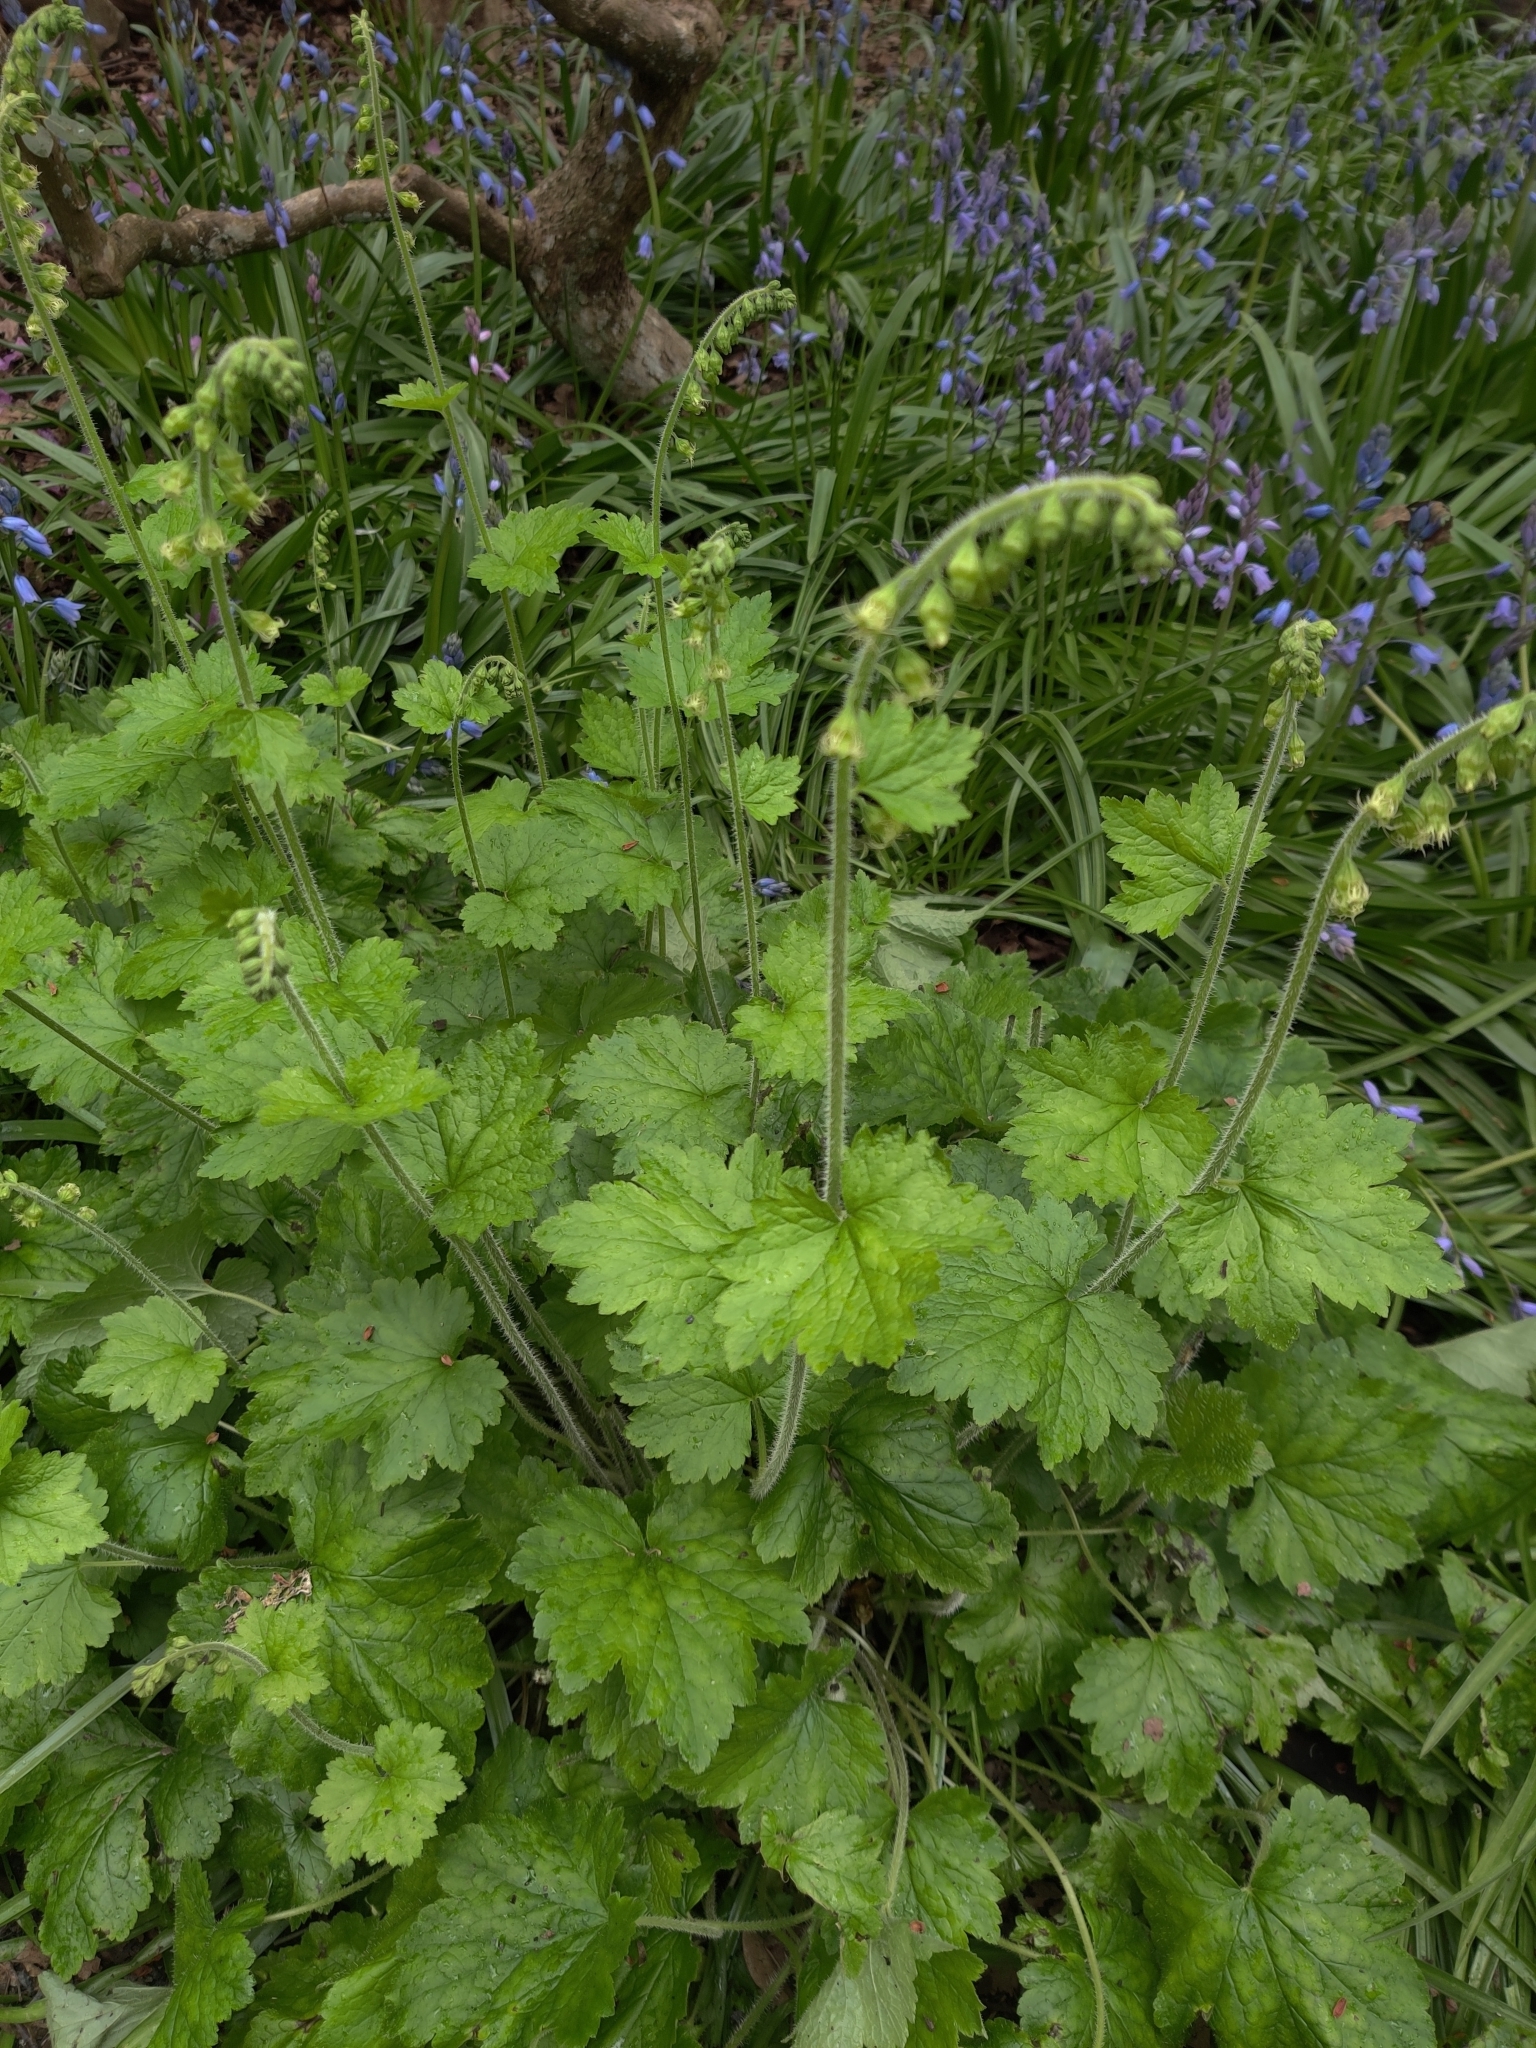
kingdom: Plantae
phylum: Tracheophyta
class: Magnoliopsida
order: Saxifragales
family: Saxifragaceae
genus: Tellima
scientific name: Tellima grandiflora
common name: Fringecups
